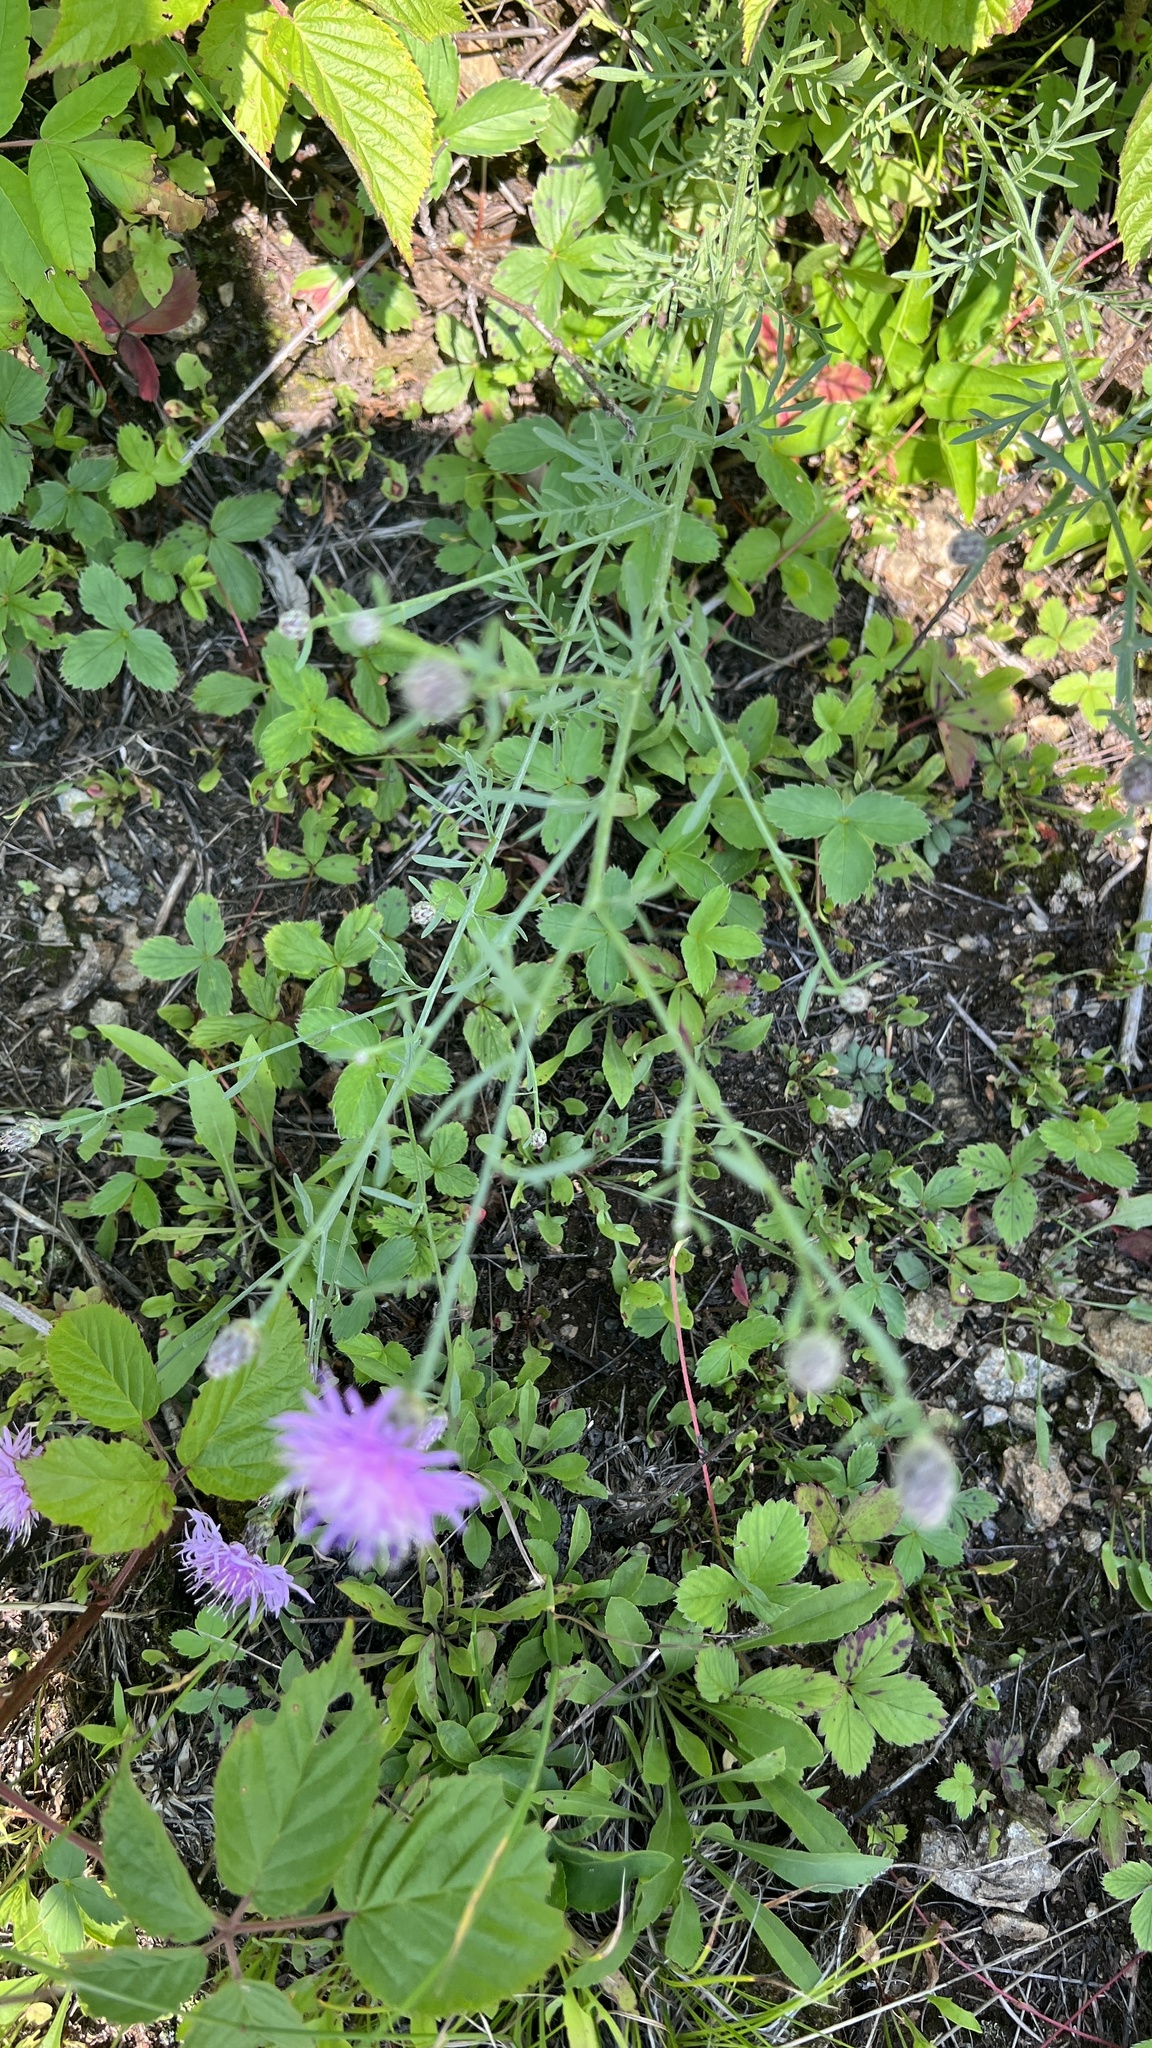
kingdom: Plantae
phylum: Tracheophyta
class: Magnoliopsida
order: Asterales
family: Asteraceae
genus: Centaurea
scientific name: Centaurea stoebe
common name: Spotted knapweed
